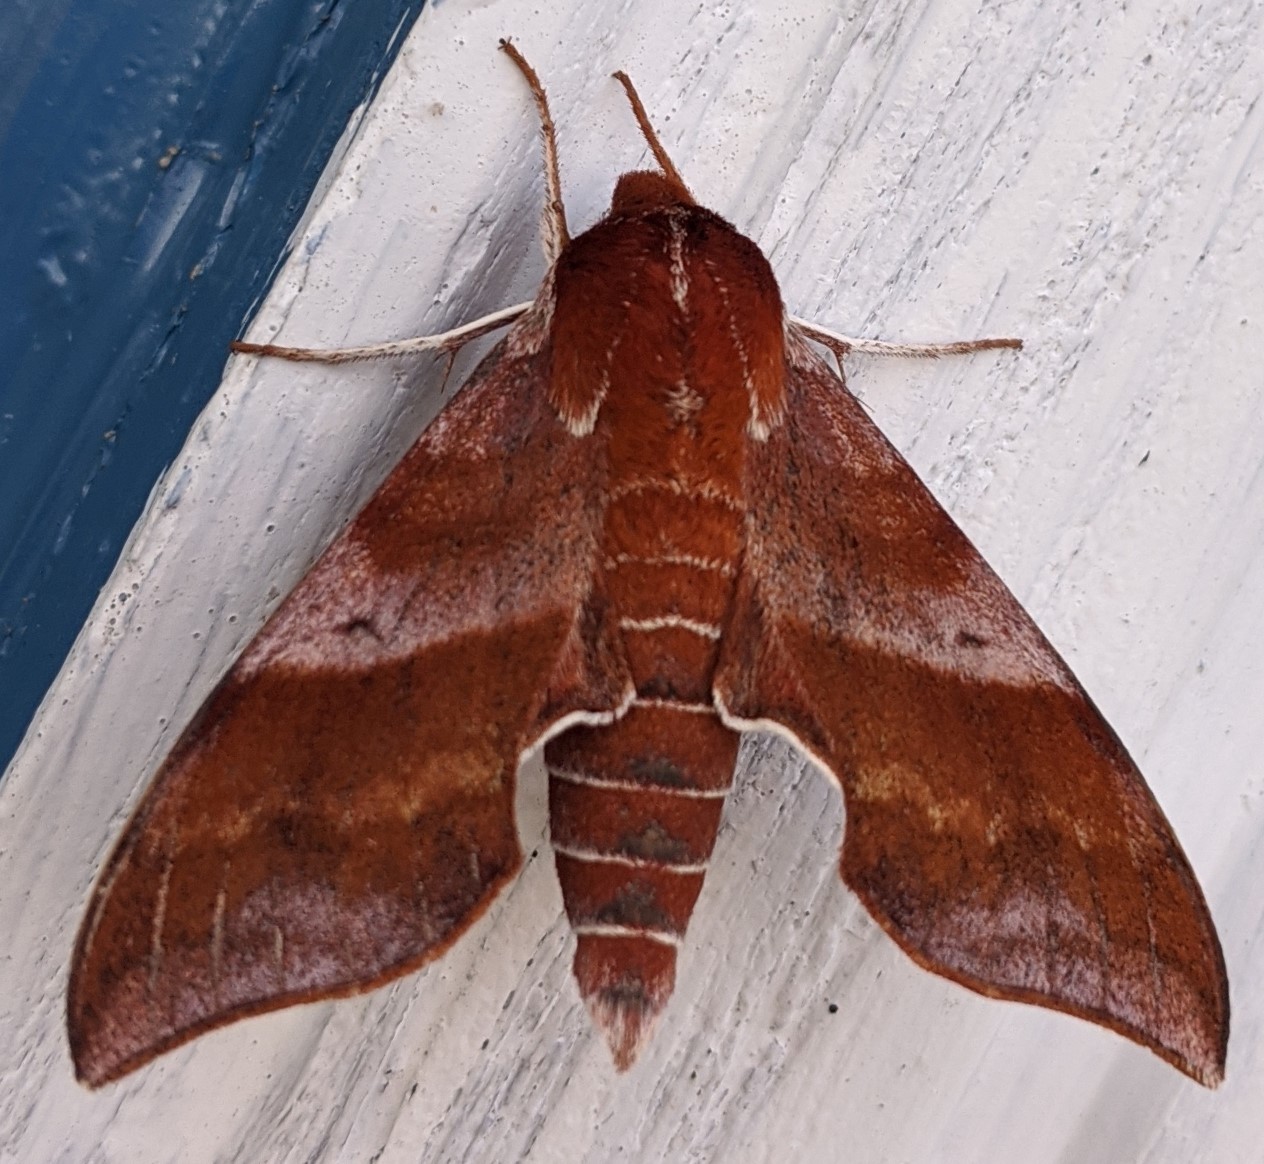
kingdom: Animalia
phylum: Arthropoda
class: Insecta
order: Lepidoptera
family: Sphingidae
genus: Darapsa
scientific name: Darapsa choerilus
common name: Azalea sphinx
